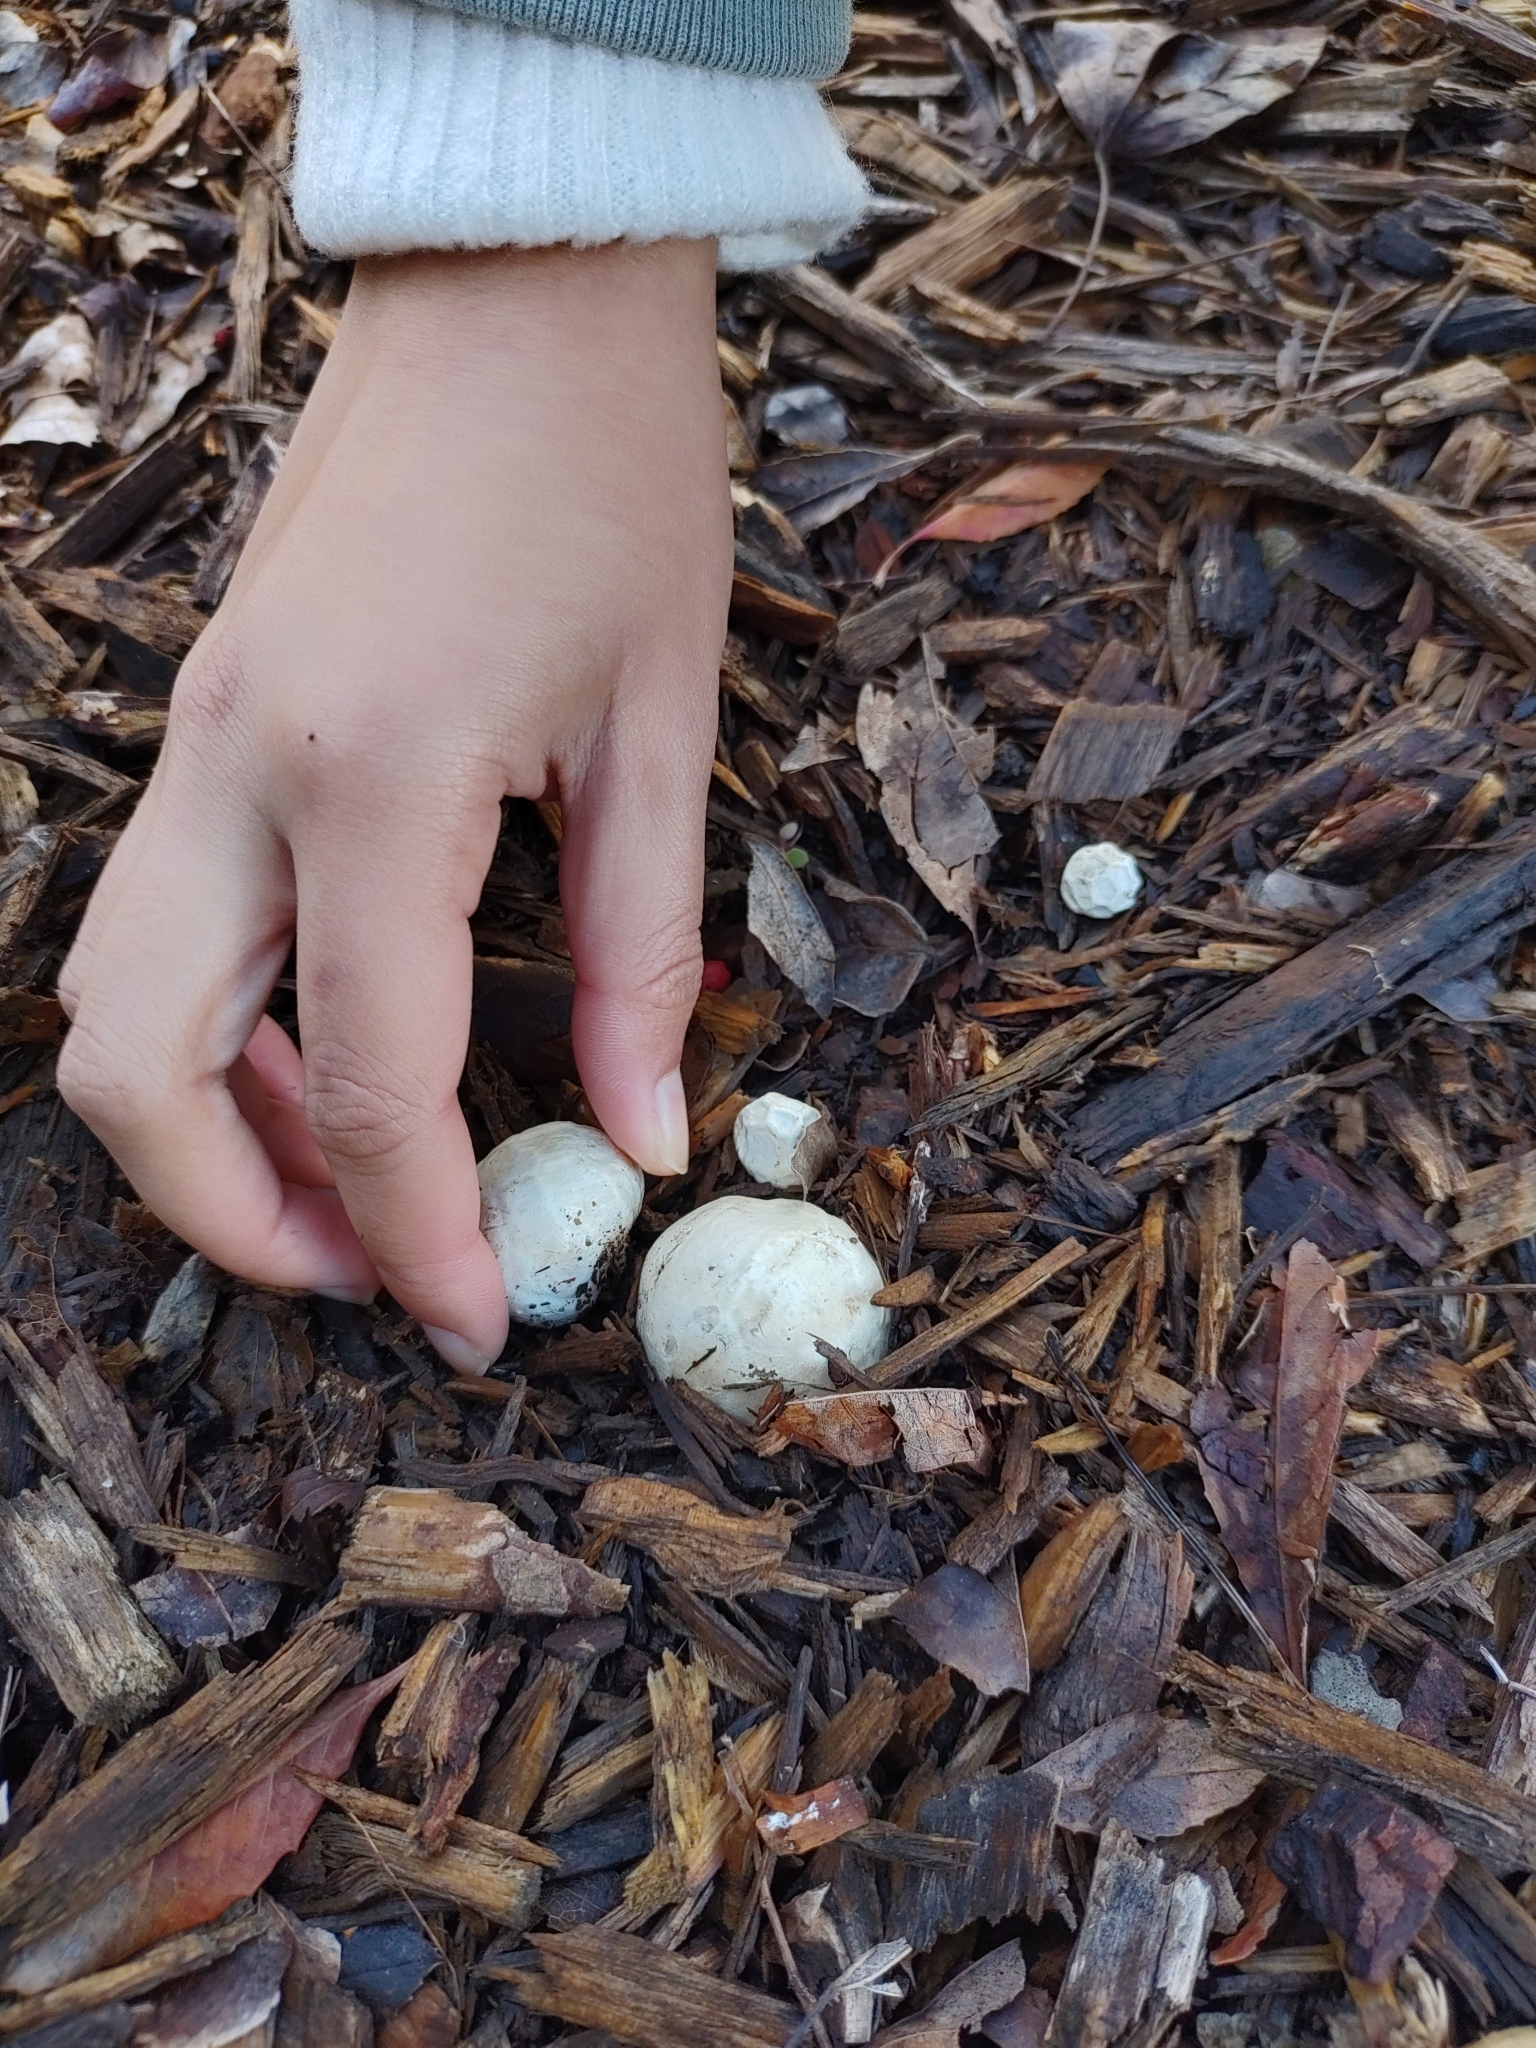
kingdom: Fungi
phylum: Basidiomycota
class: Agaricomycetes
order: Phallales
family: Phallaceae
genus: Clathrus
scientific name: Clathrus ruber
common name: Red cage
